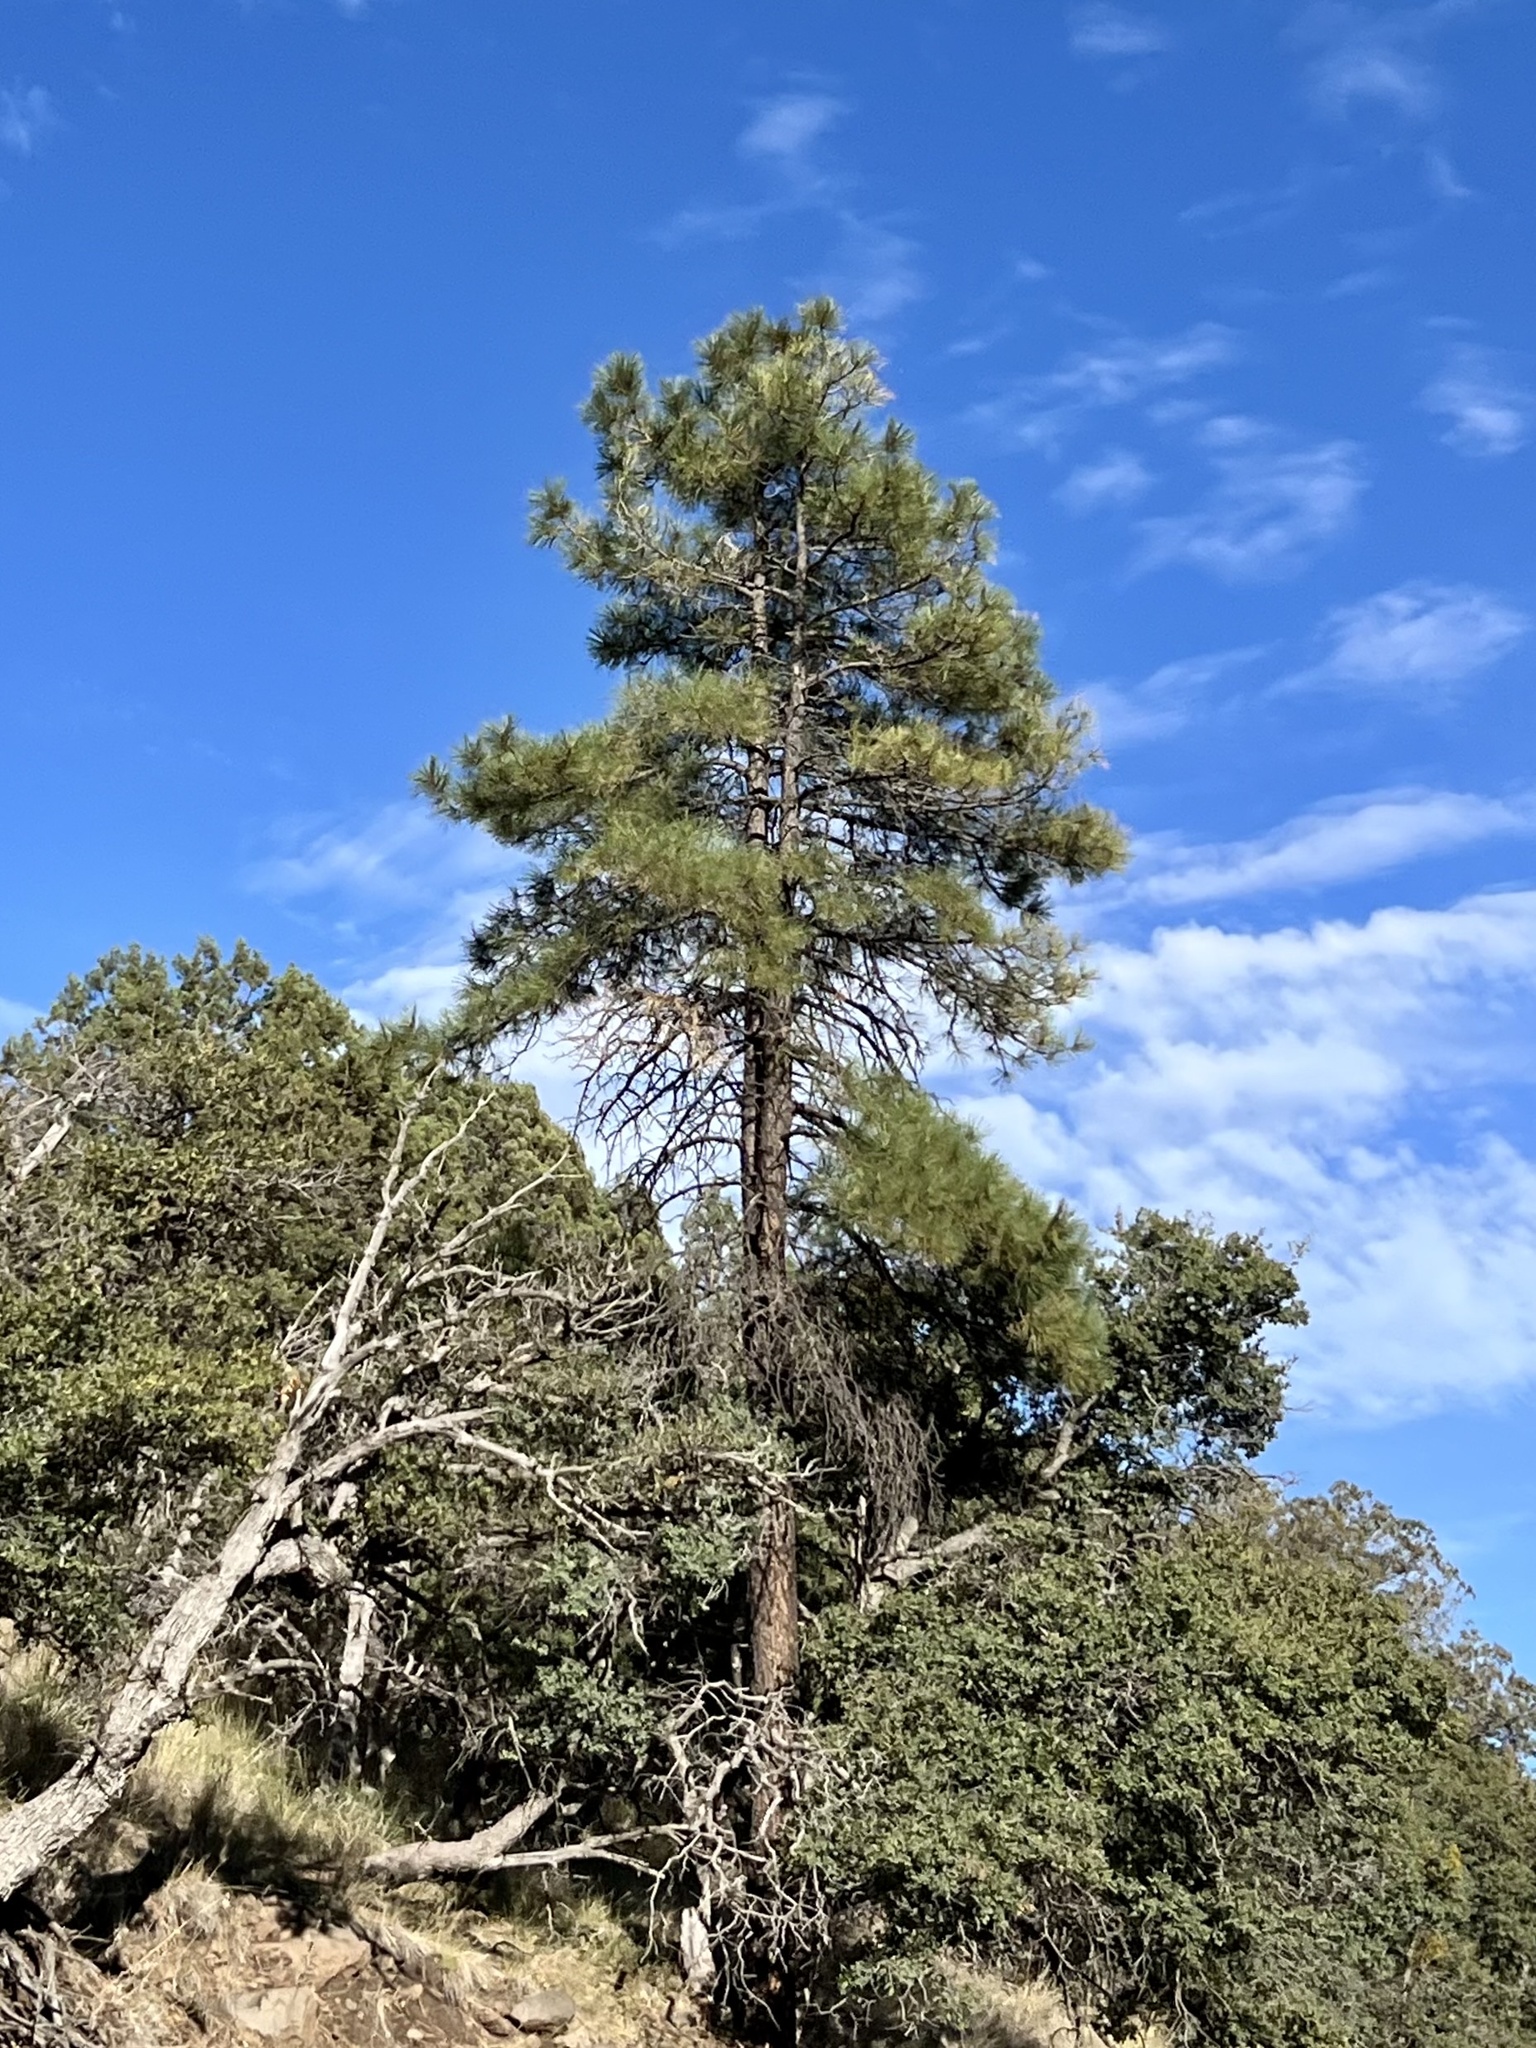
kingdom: Plantae
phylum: Tracheophyta
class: Pinopsida
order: Pinales
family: Pinaceae
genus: Pinus
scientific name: Pinus ponderosa
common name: Western yellow-pine
